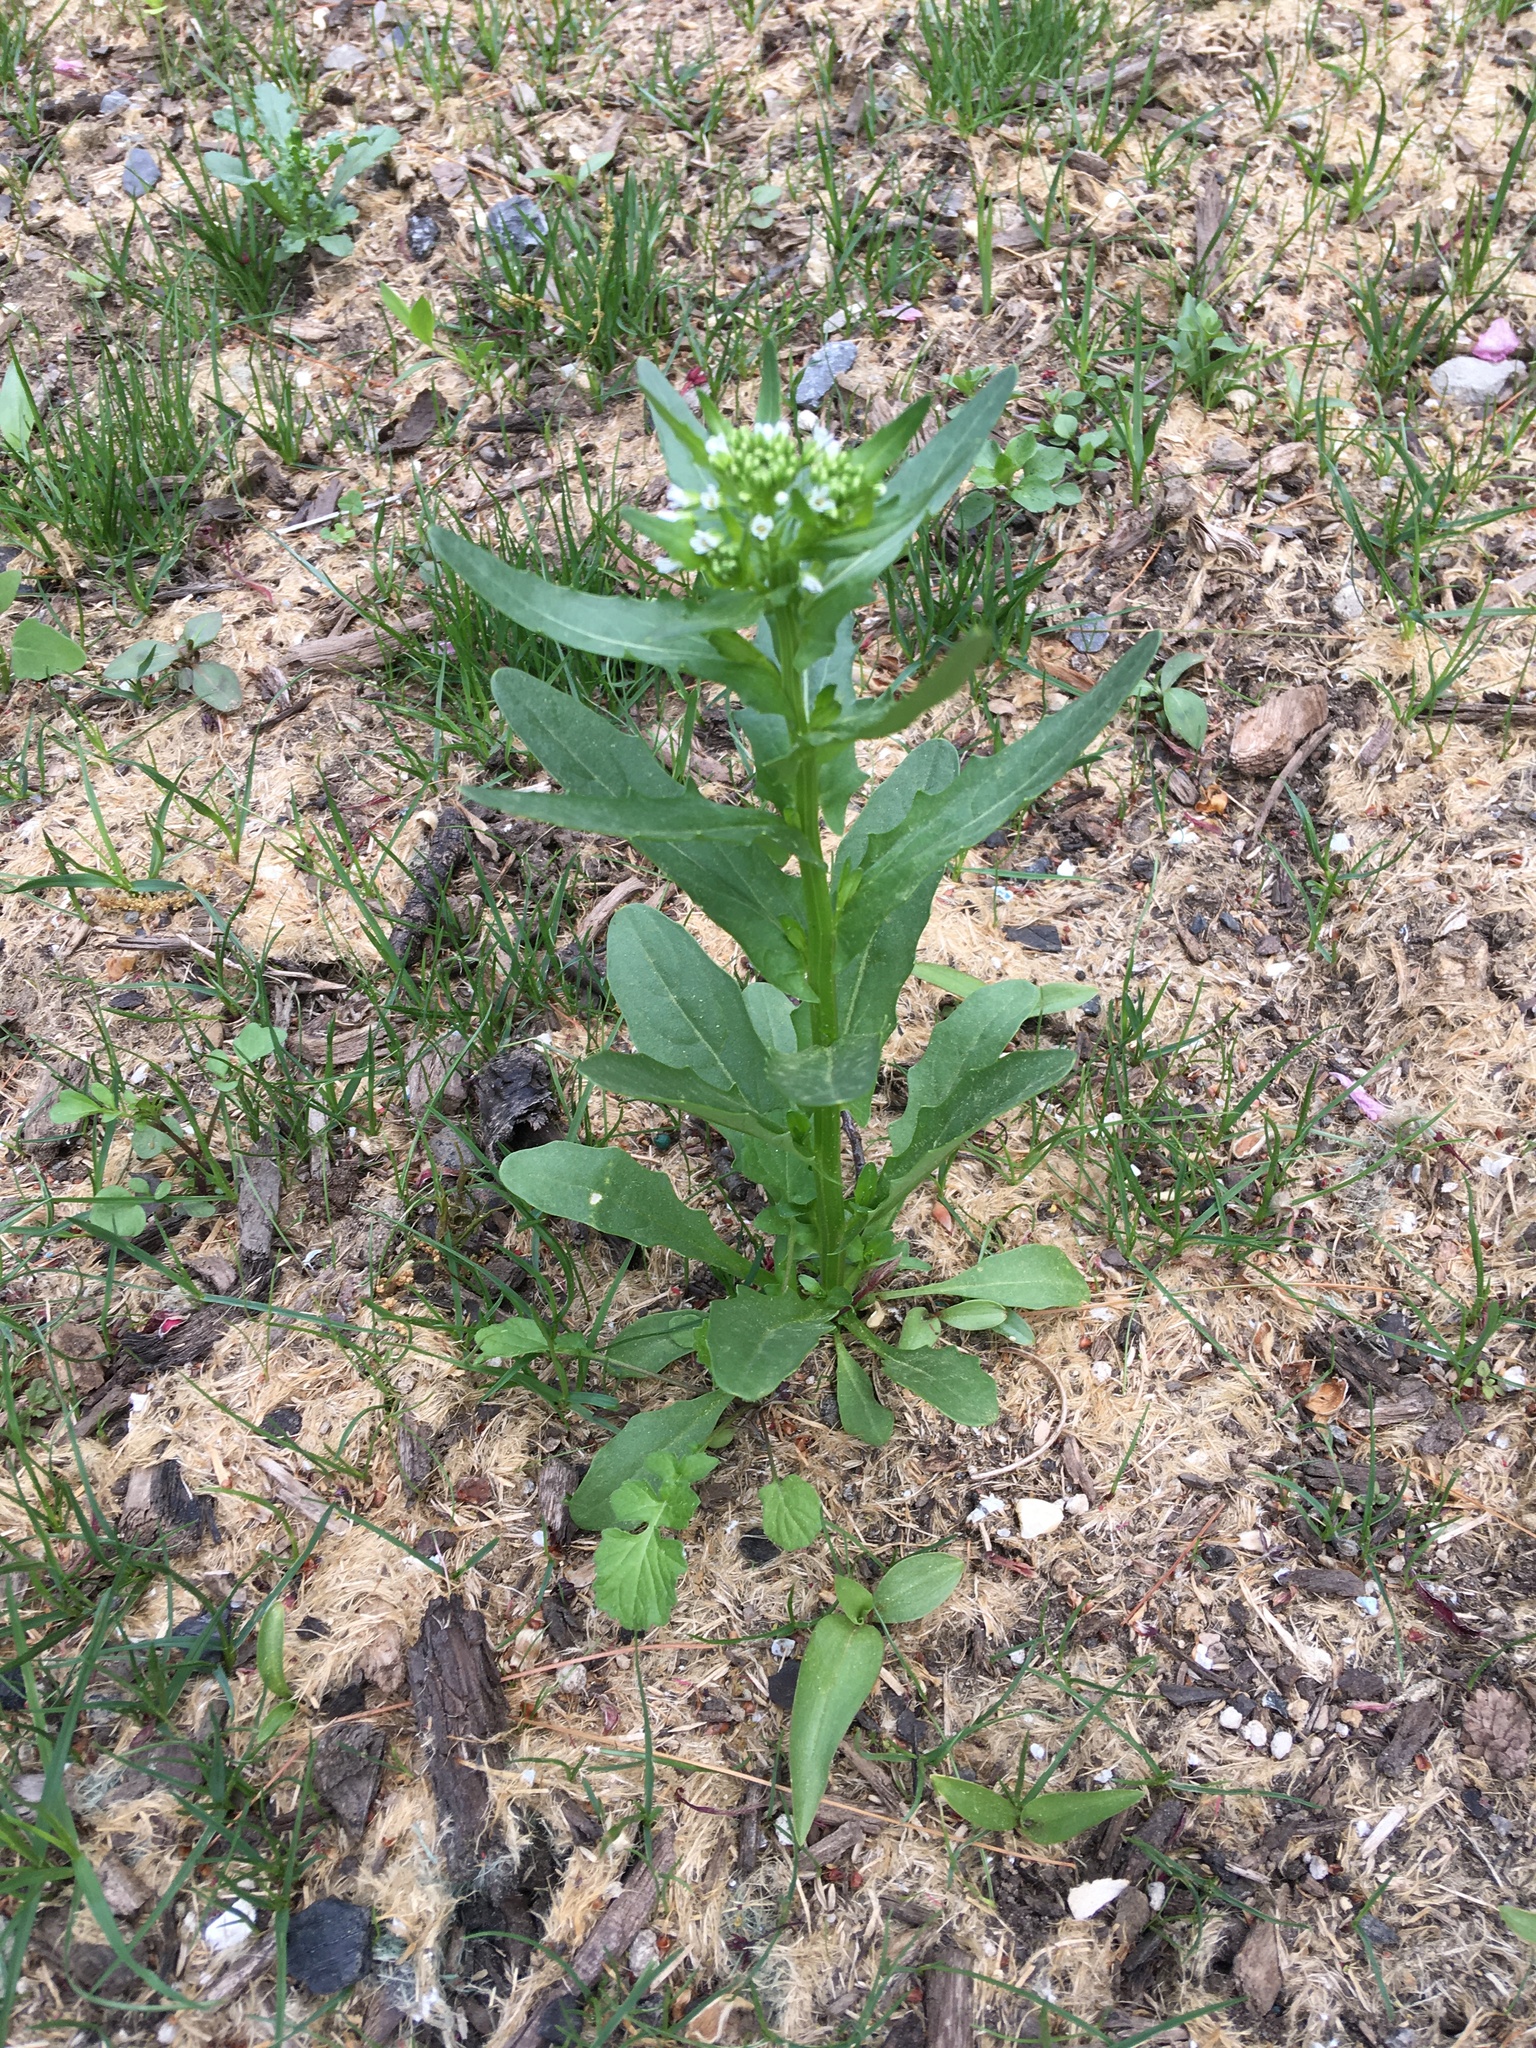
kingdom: Plantae
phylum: Tracheophyta
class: Magnoliopsida
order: Brassicales
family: Brassicaceae
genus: Thlaspi
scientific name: Thlaspi arvense
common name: Field pennycress
